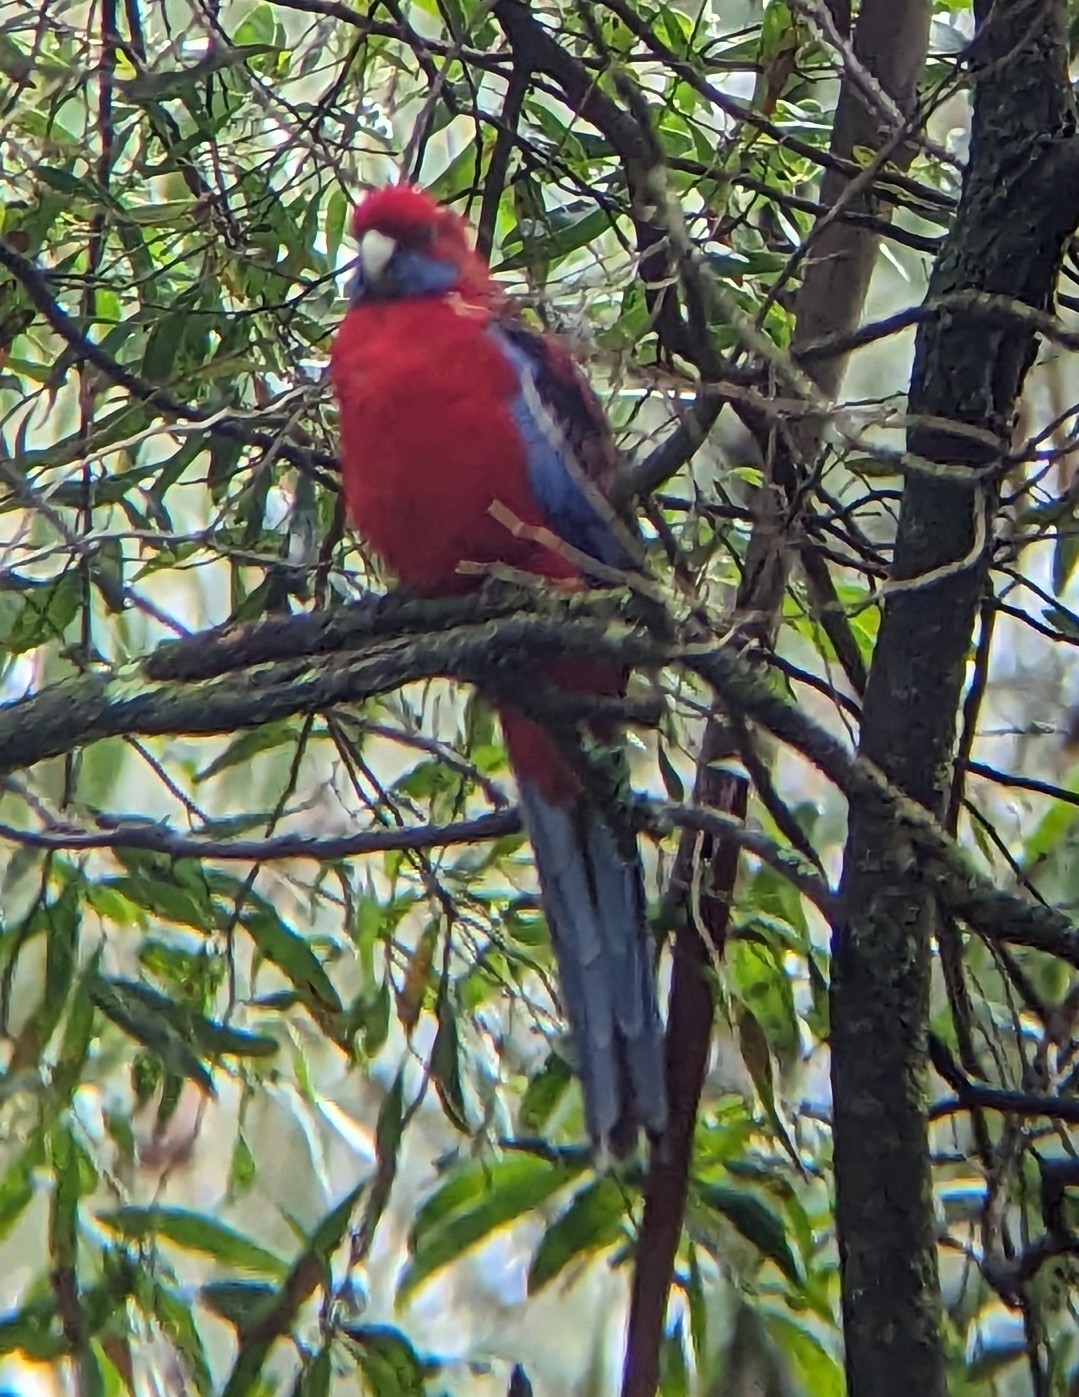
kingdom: Animalia
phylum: Chordata
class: Aves
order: Psittaciformes
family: Psittacidae
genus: Platycercus
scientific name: Platycercus elegans
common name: Crimson rosella
